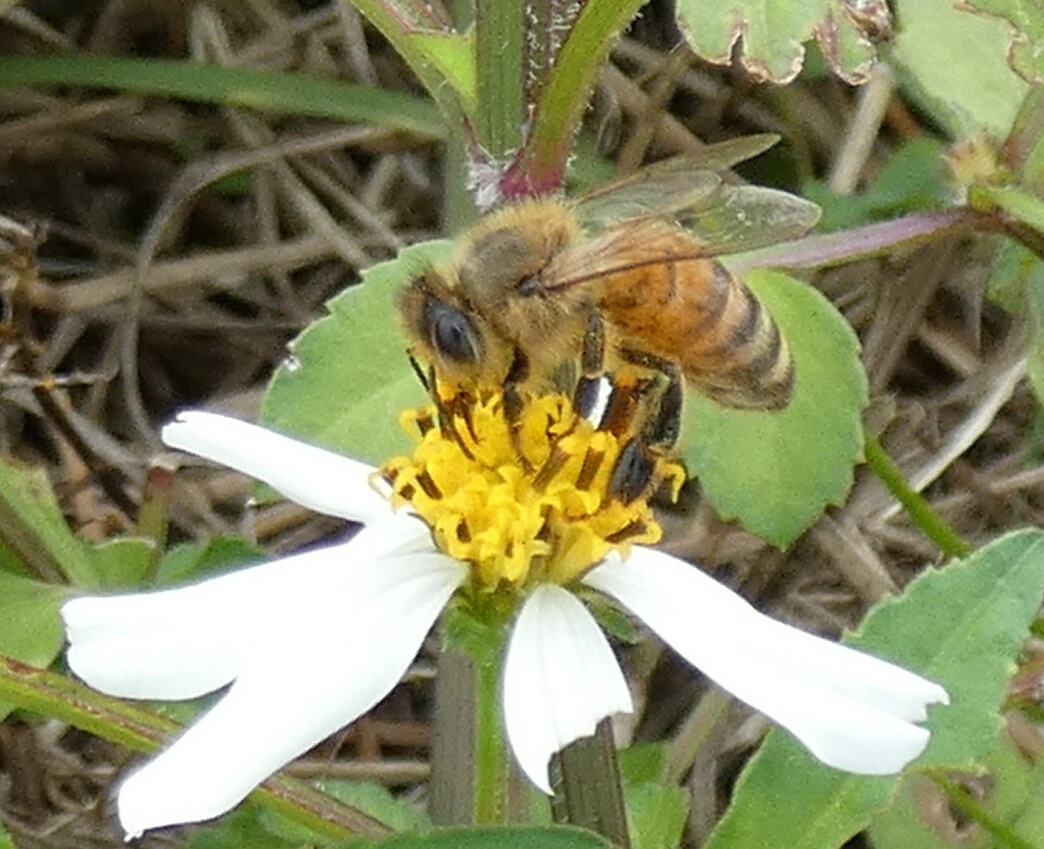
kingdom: Animalia
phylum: Arthropoda
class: Insecta
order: Hymenoptera
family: Apidae
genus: Apis
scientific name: Apis mellifera
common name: Honey bee
